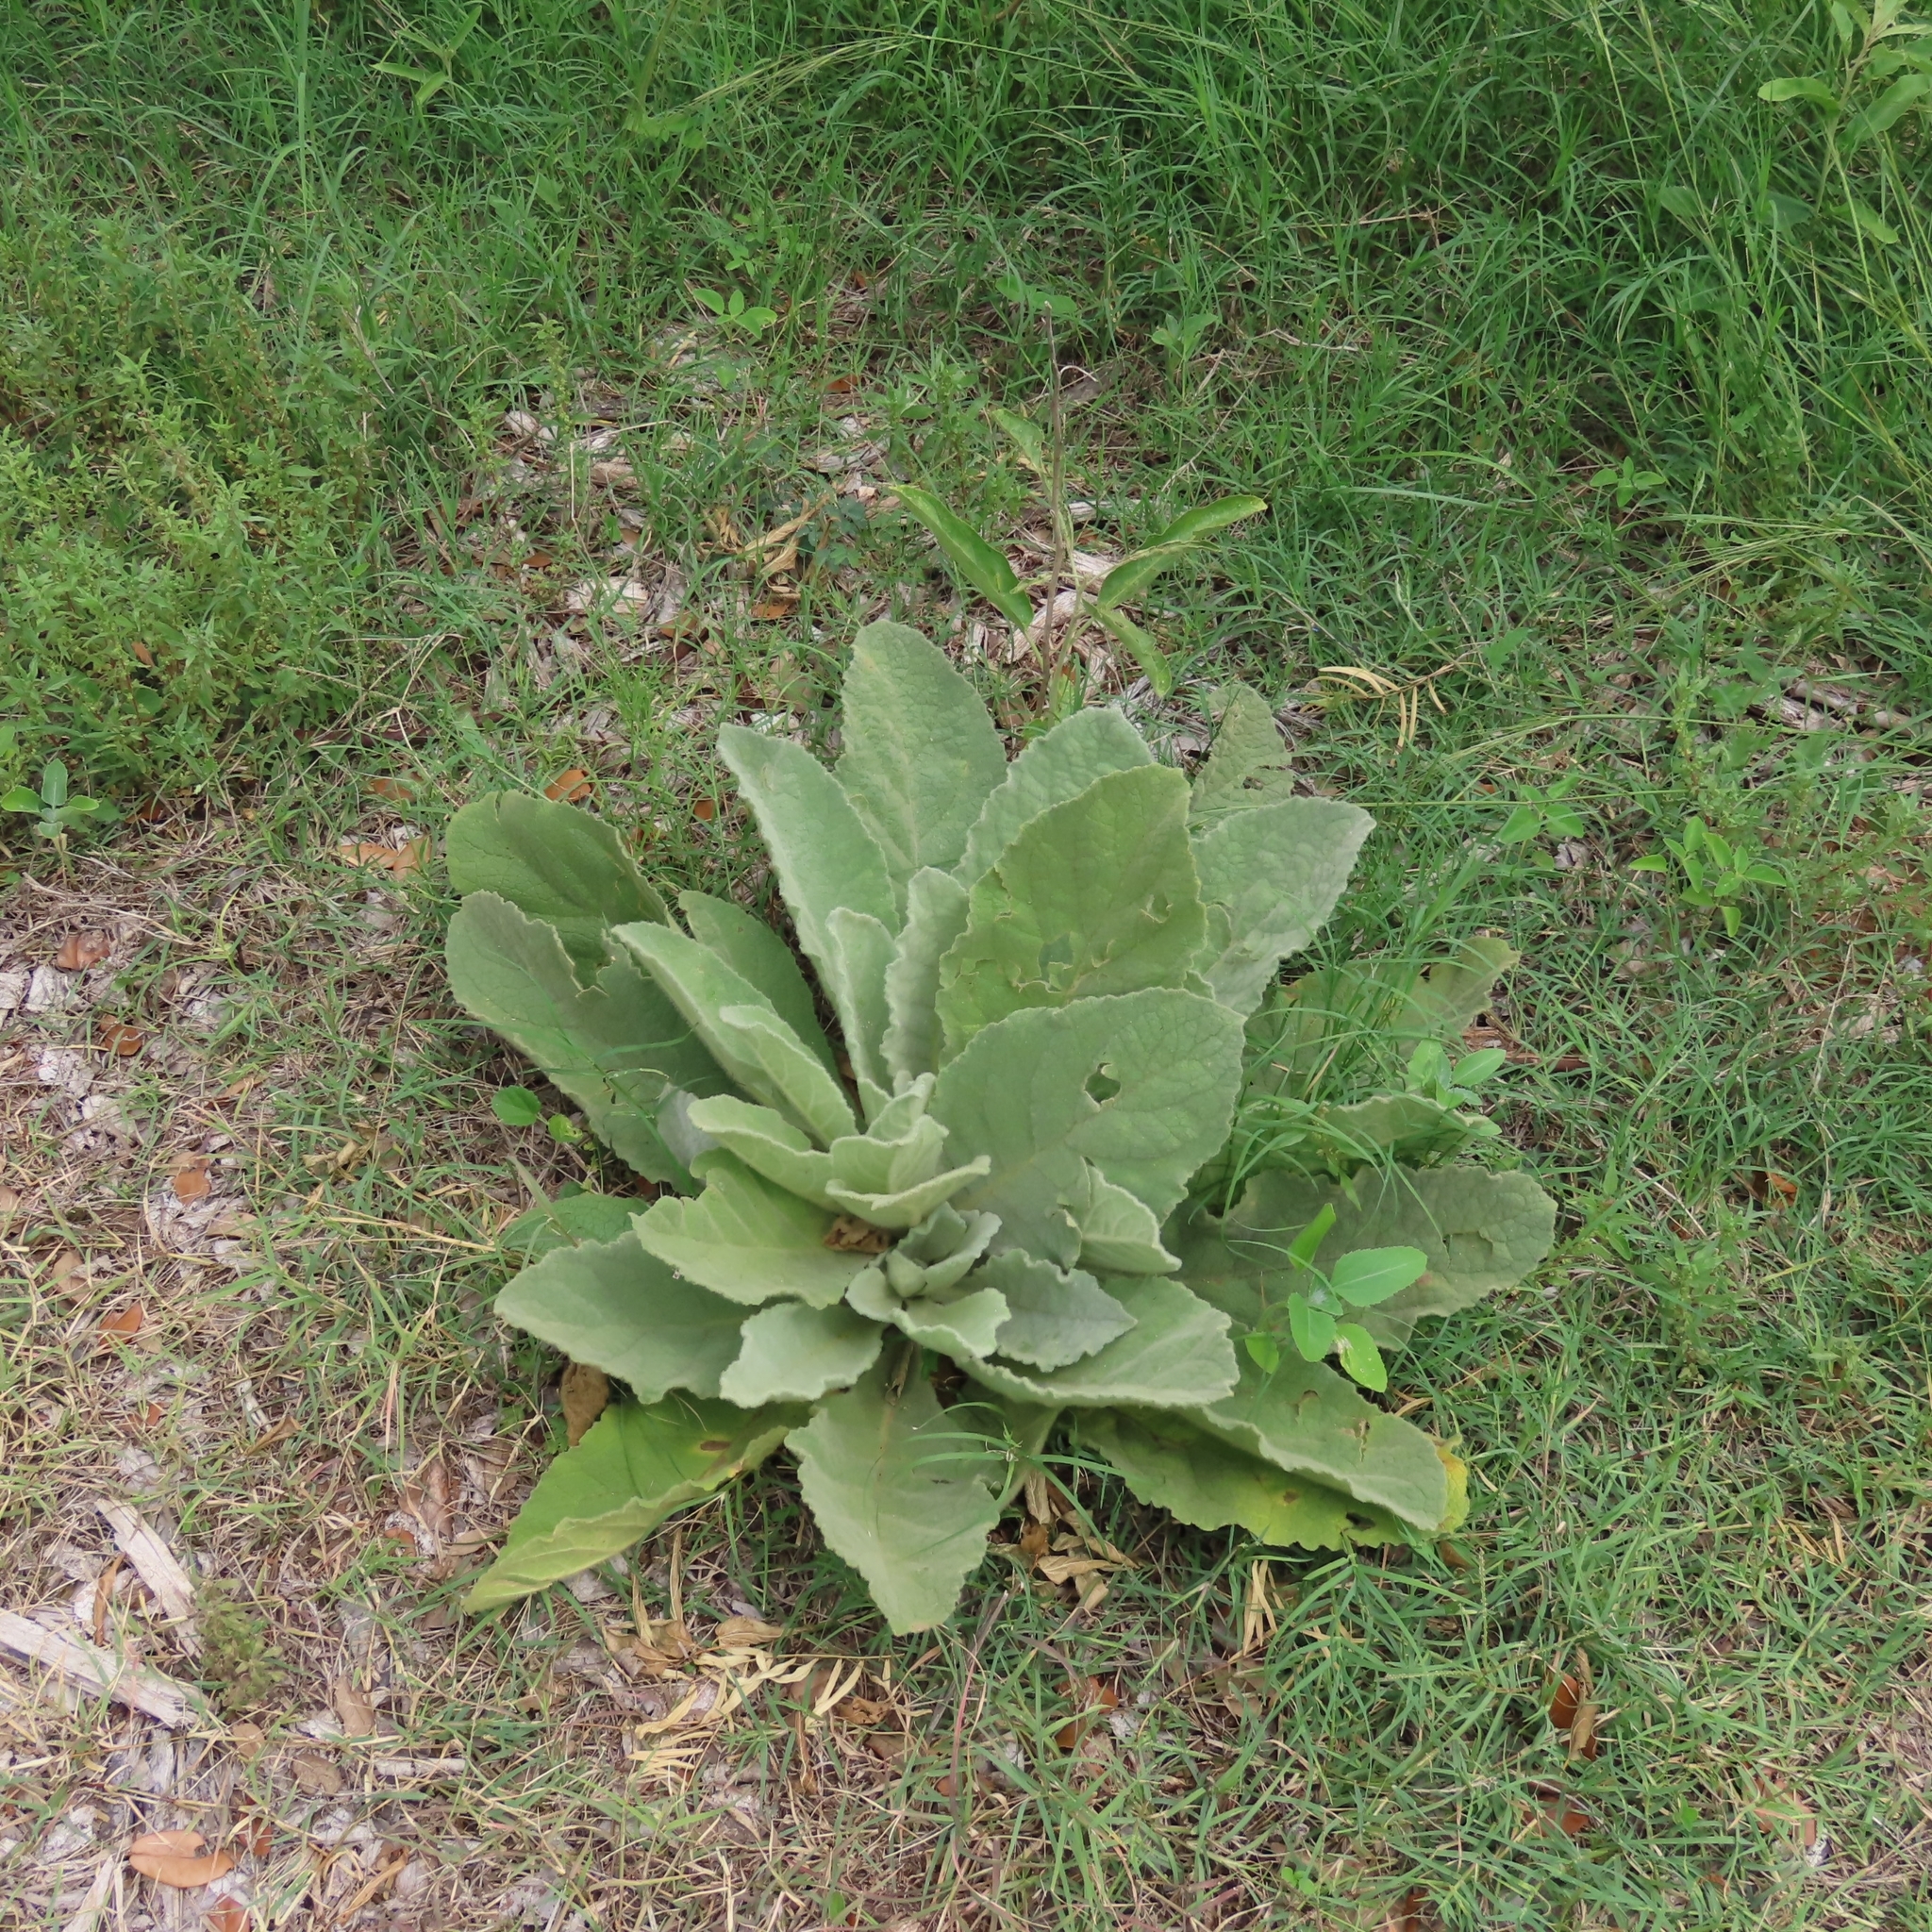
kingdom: Plantae
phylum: Tracheophyta
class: Magnoliopsida
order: Lamiales
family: Scrophulariaceae
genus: Verbascum
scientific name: Verbascum thapsus
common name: Common mullein
